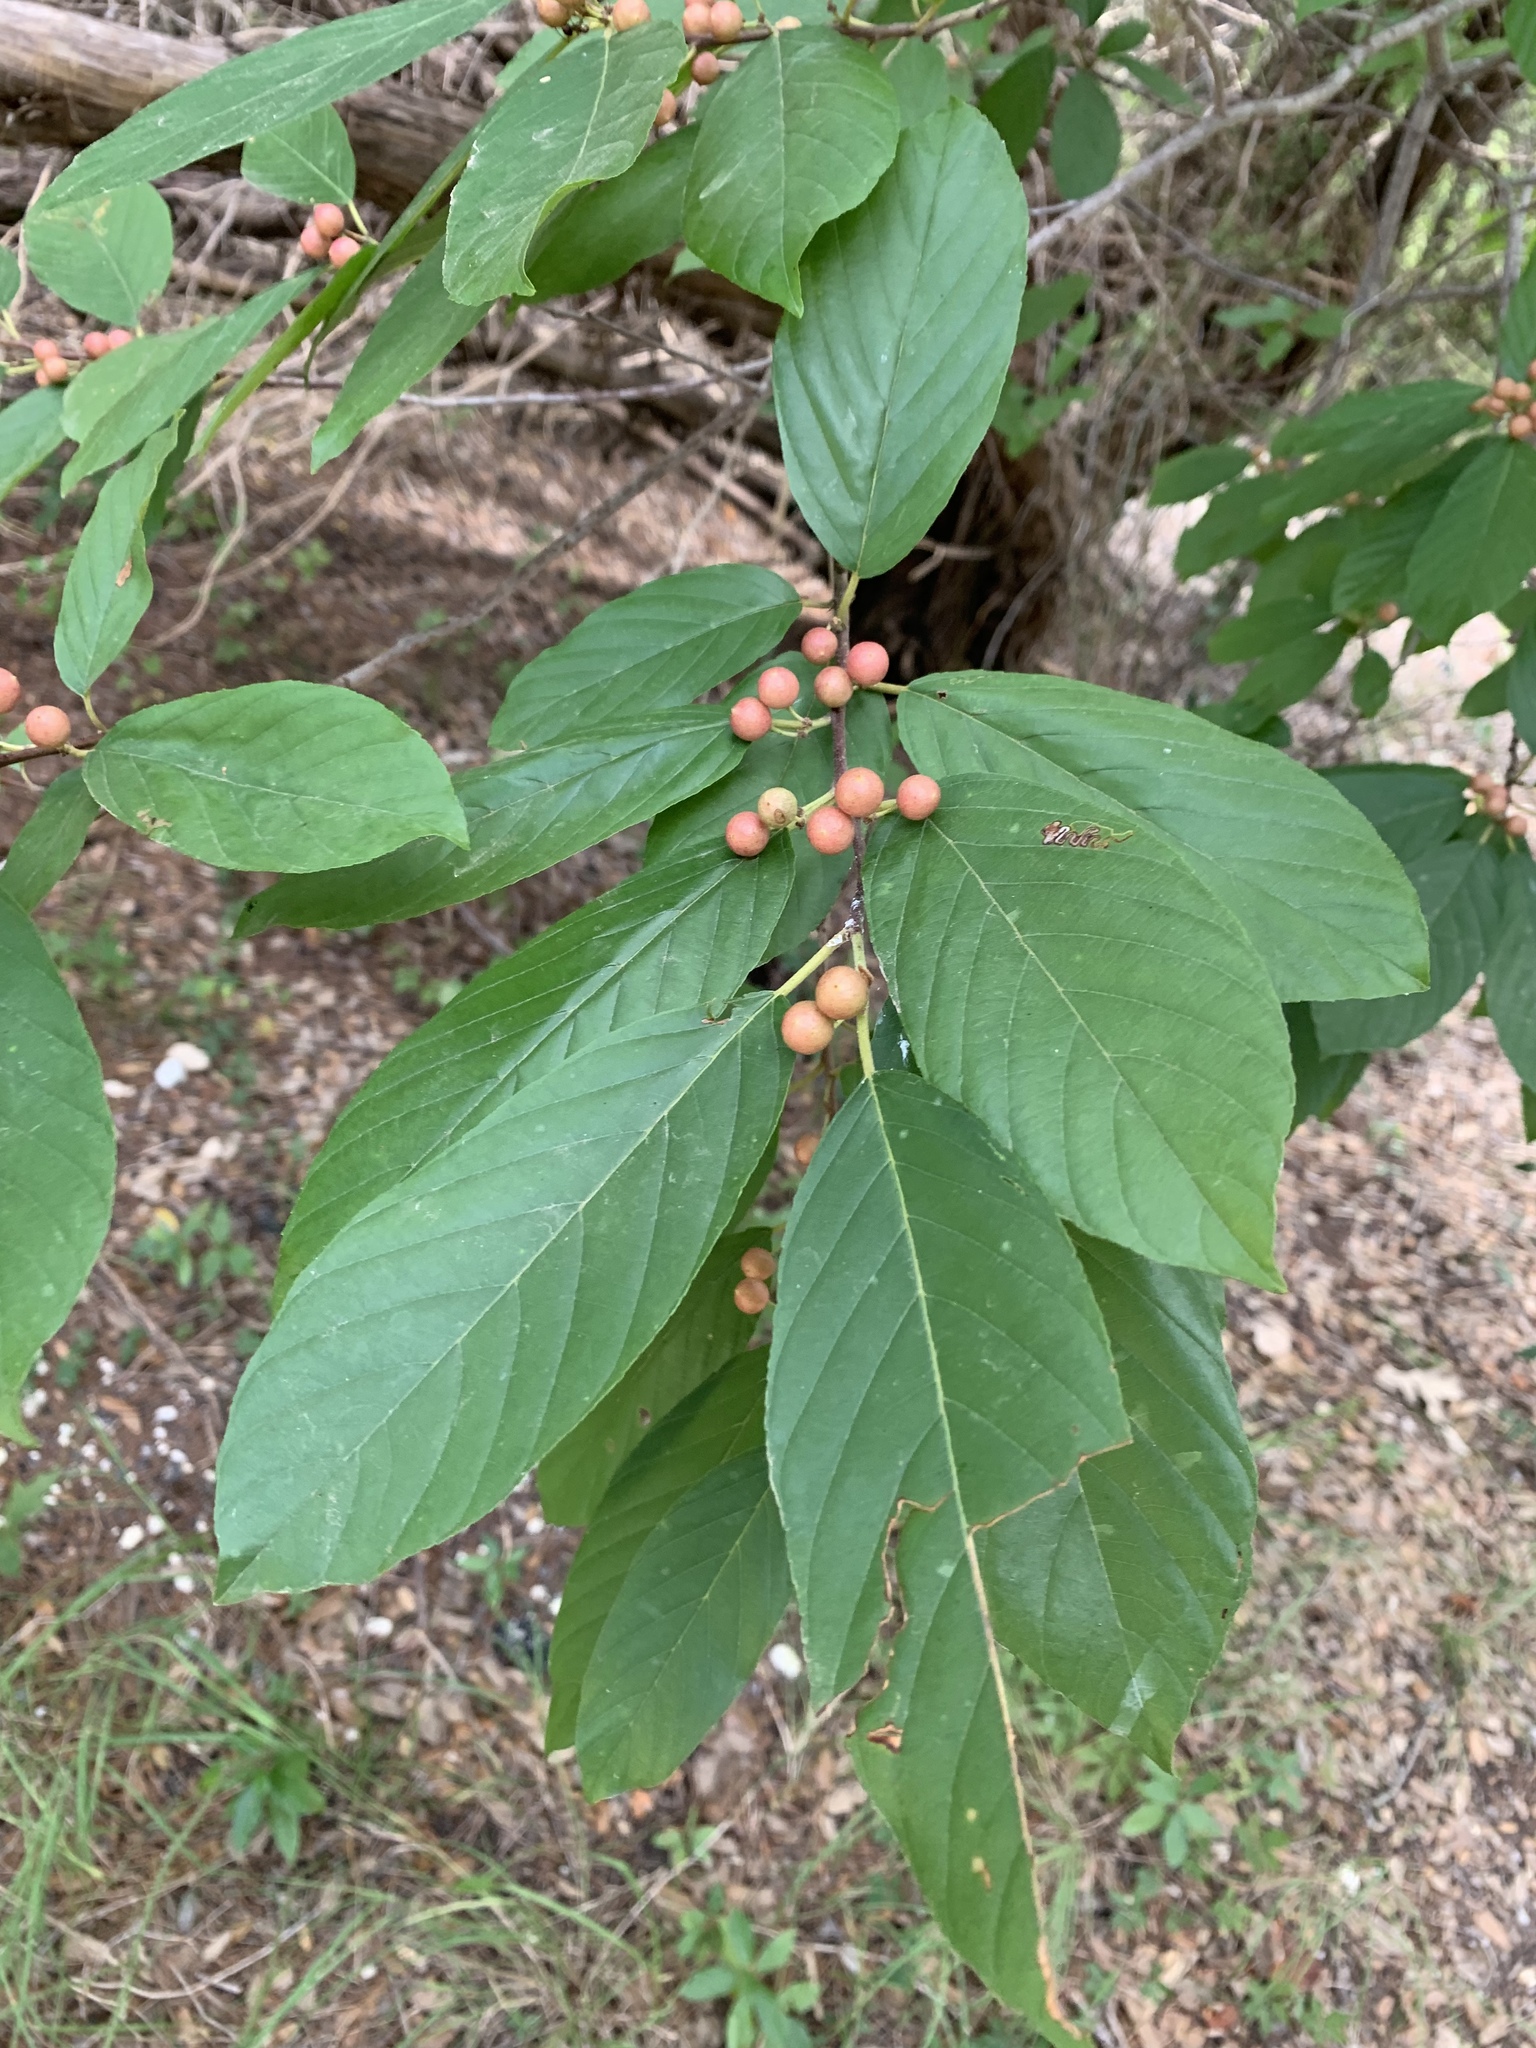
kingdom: Plantae
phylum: Tracheophyta
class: Magnoliopsida
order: Rosales
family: Rhamnaceae
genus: Frangula
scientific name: Frangula caroliniana
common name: Carolina buckthorn
